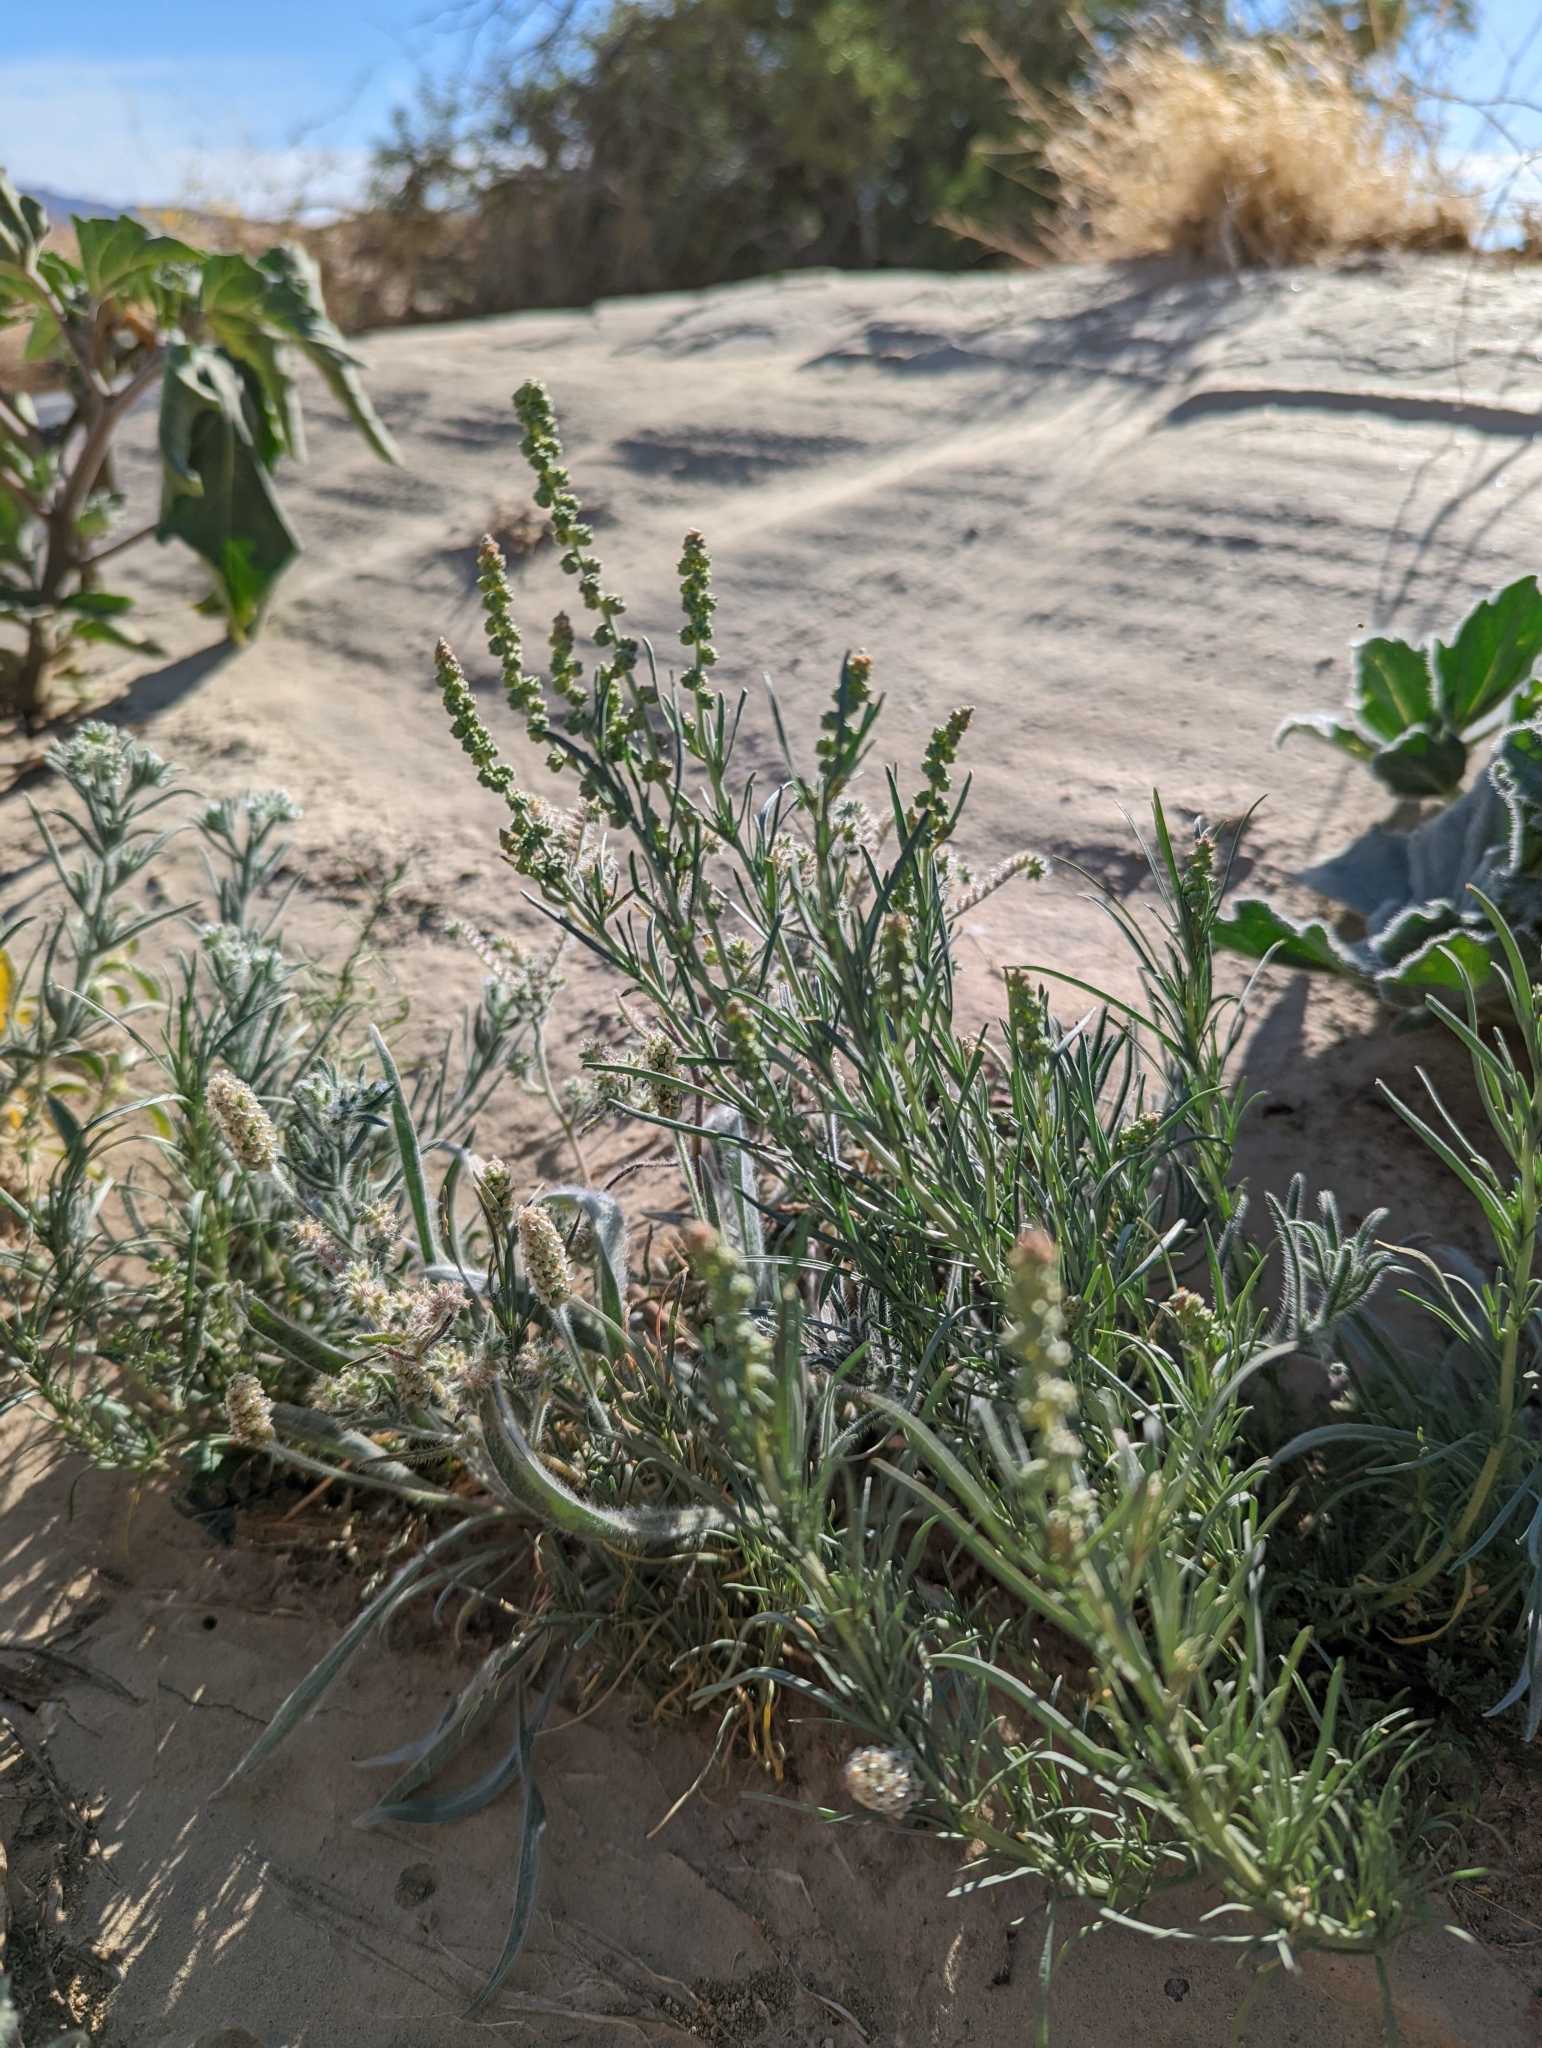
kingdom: Plantae
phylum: Tracheophyta
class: Magnoliopsida
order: Brassicales
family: Resedaceae
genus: Oligomeris
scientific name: Oligomeris linifolia
